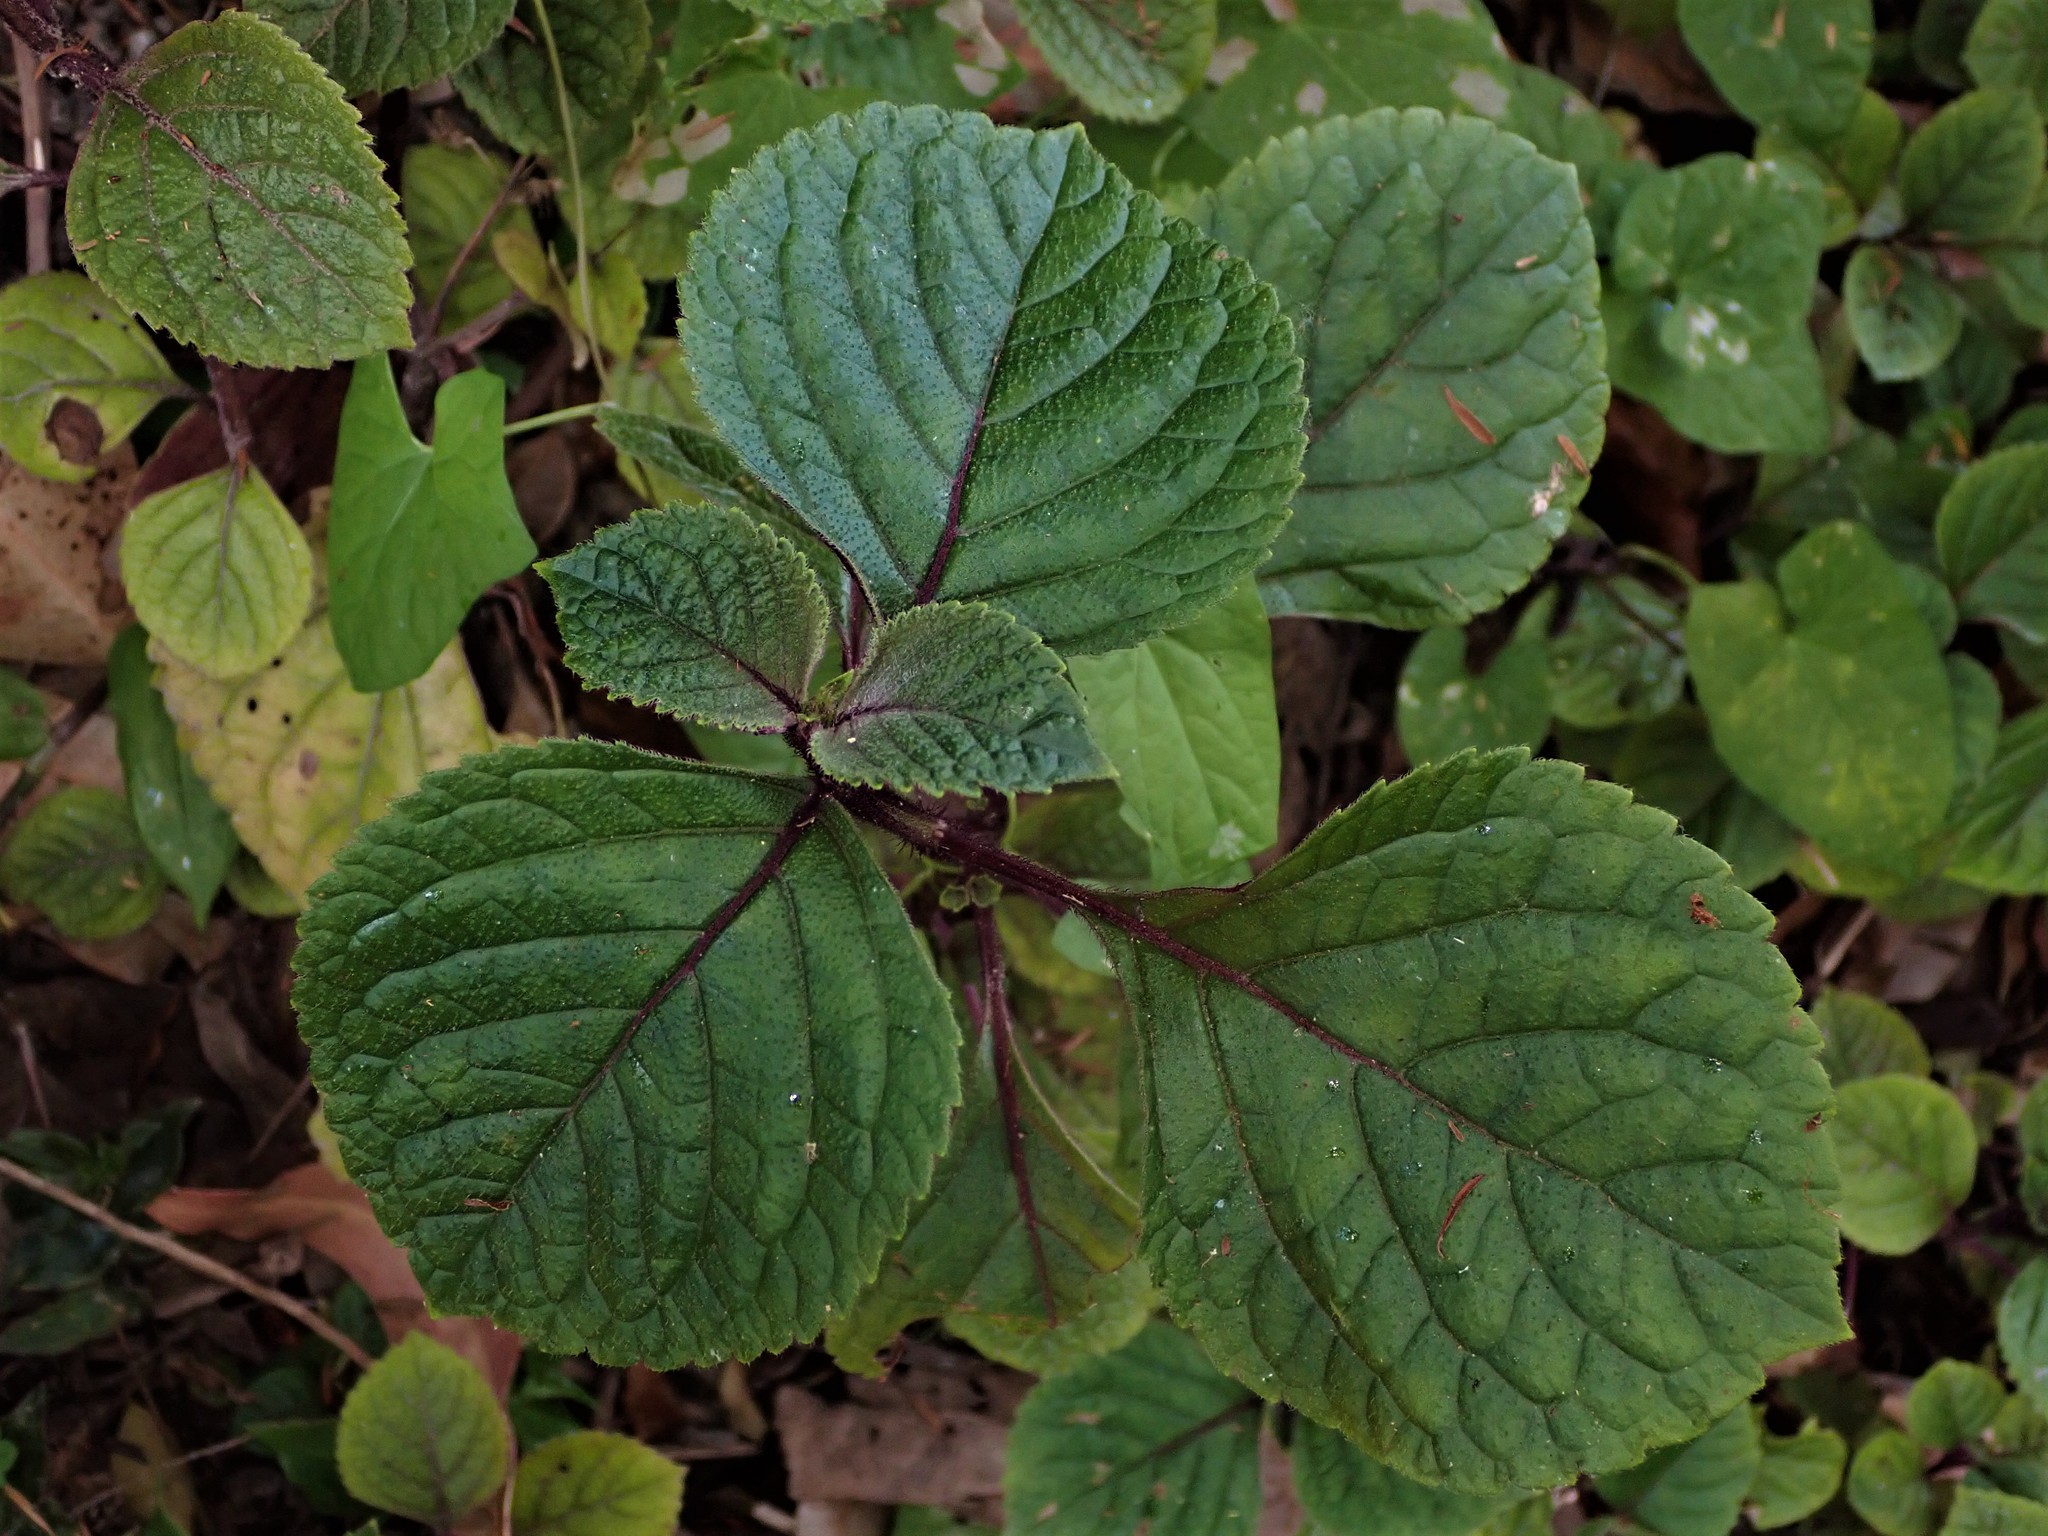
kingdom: Plantae
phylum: Tracheophyta
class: Magnoliopsida
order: Lamiales
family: Lamiaceae
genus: Plectranthus
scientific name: Plectranthus ciliatus
